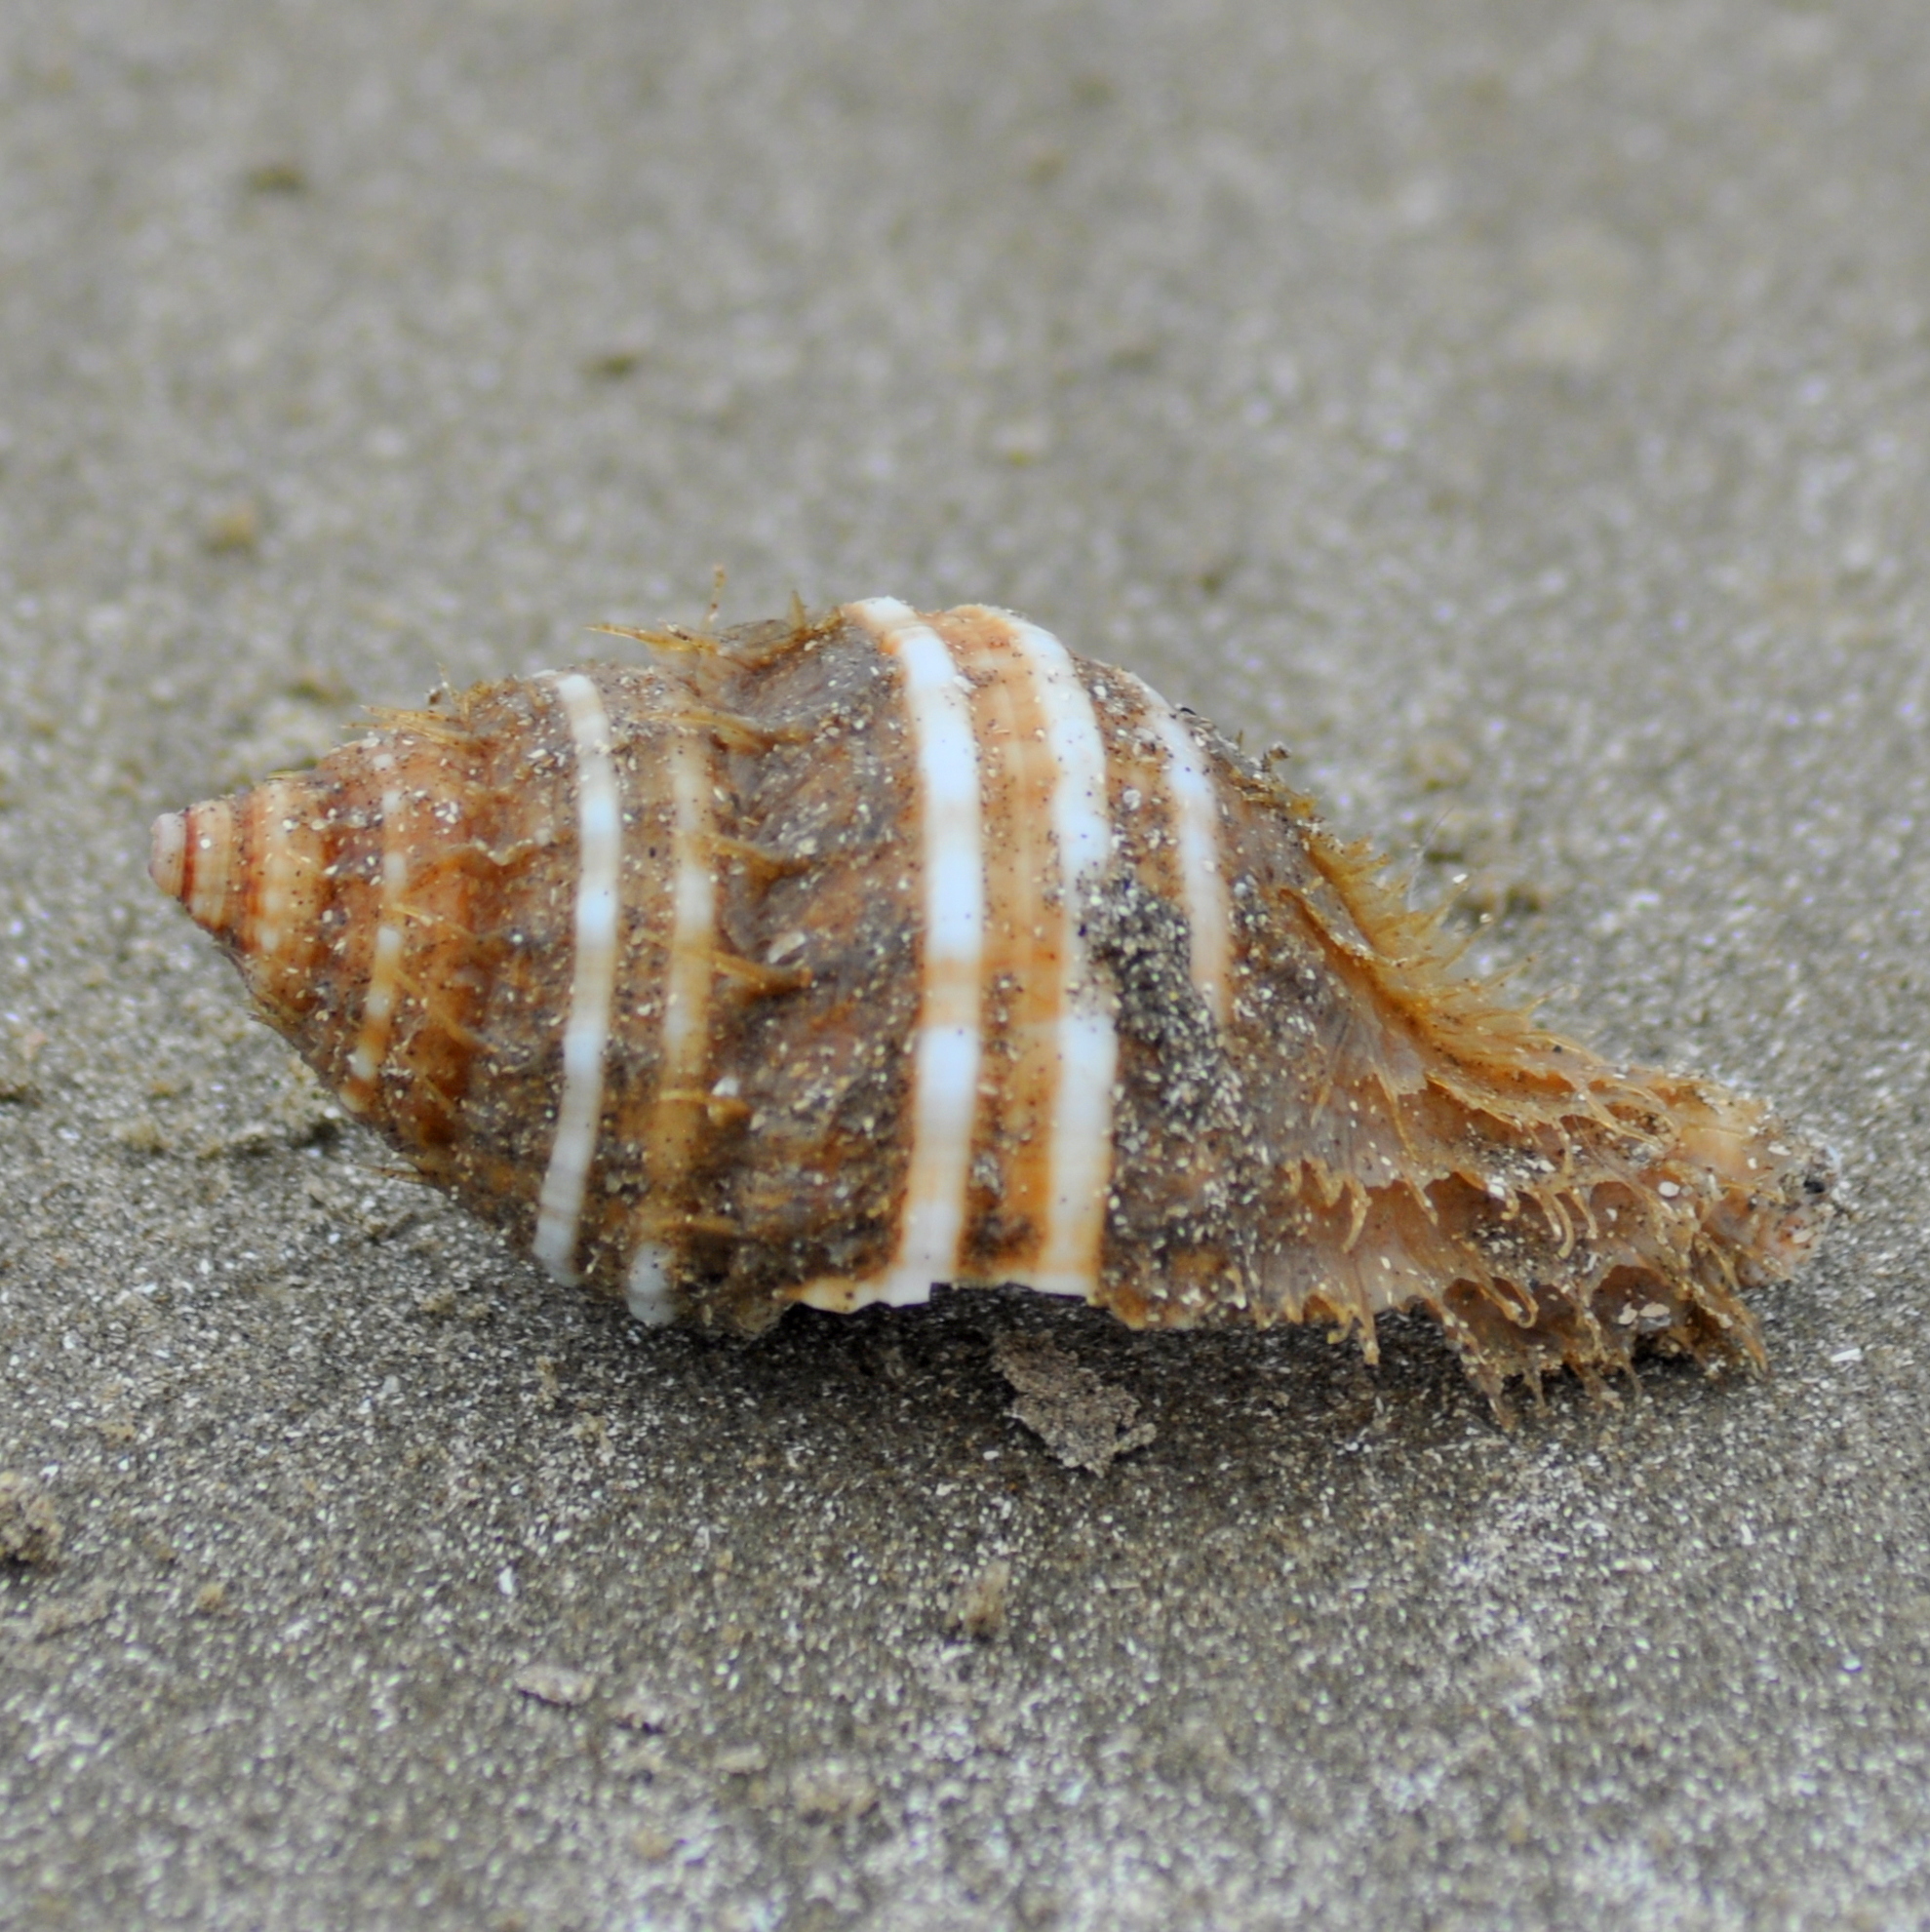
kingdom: Animalia
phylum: Mollusca
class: Gastropoda
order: Littorinimorpha
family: Cymatiidae
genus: Monoplex
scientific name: Monoplex parthenopeus
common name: Giant triton
